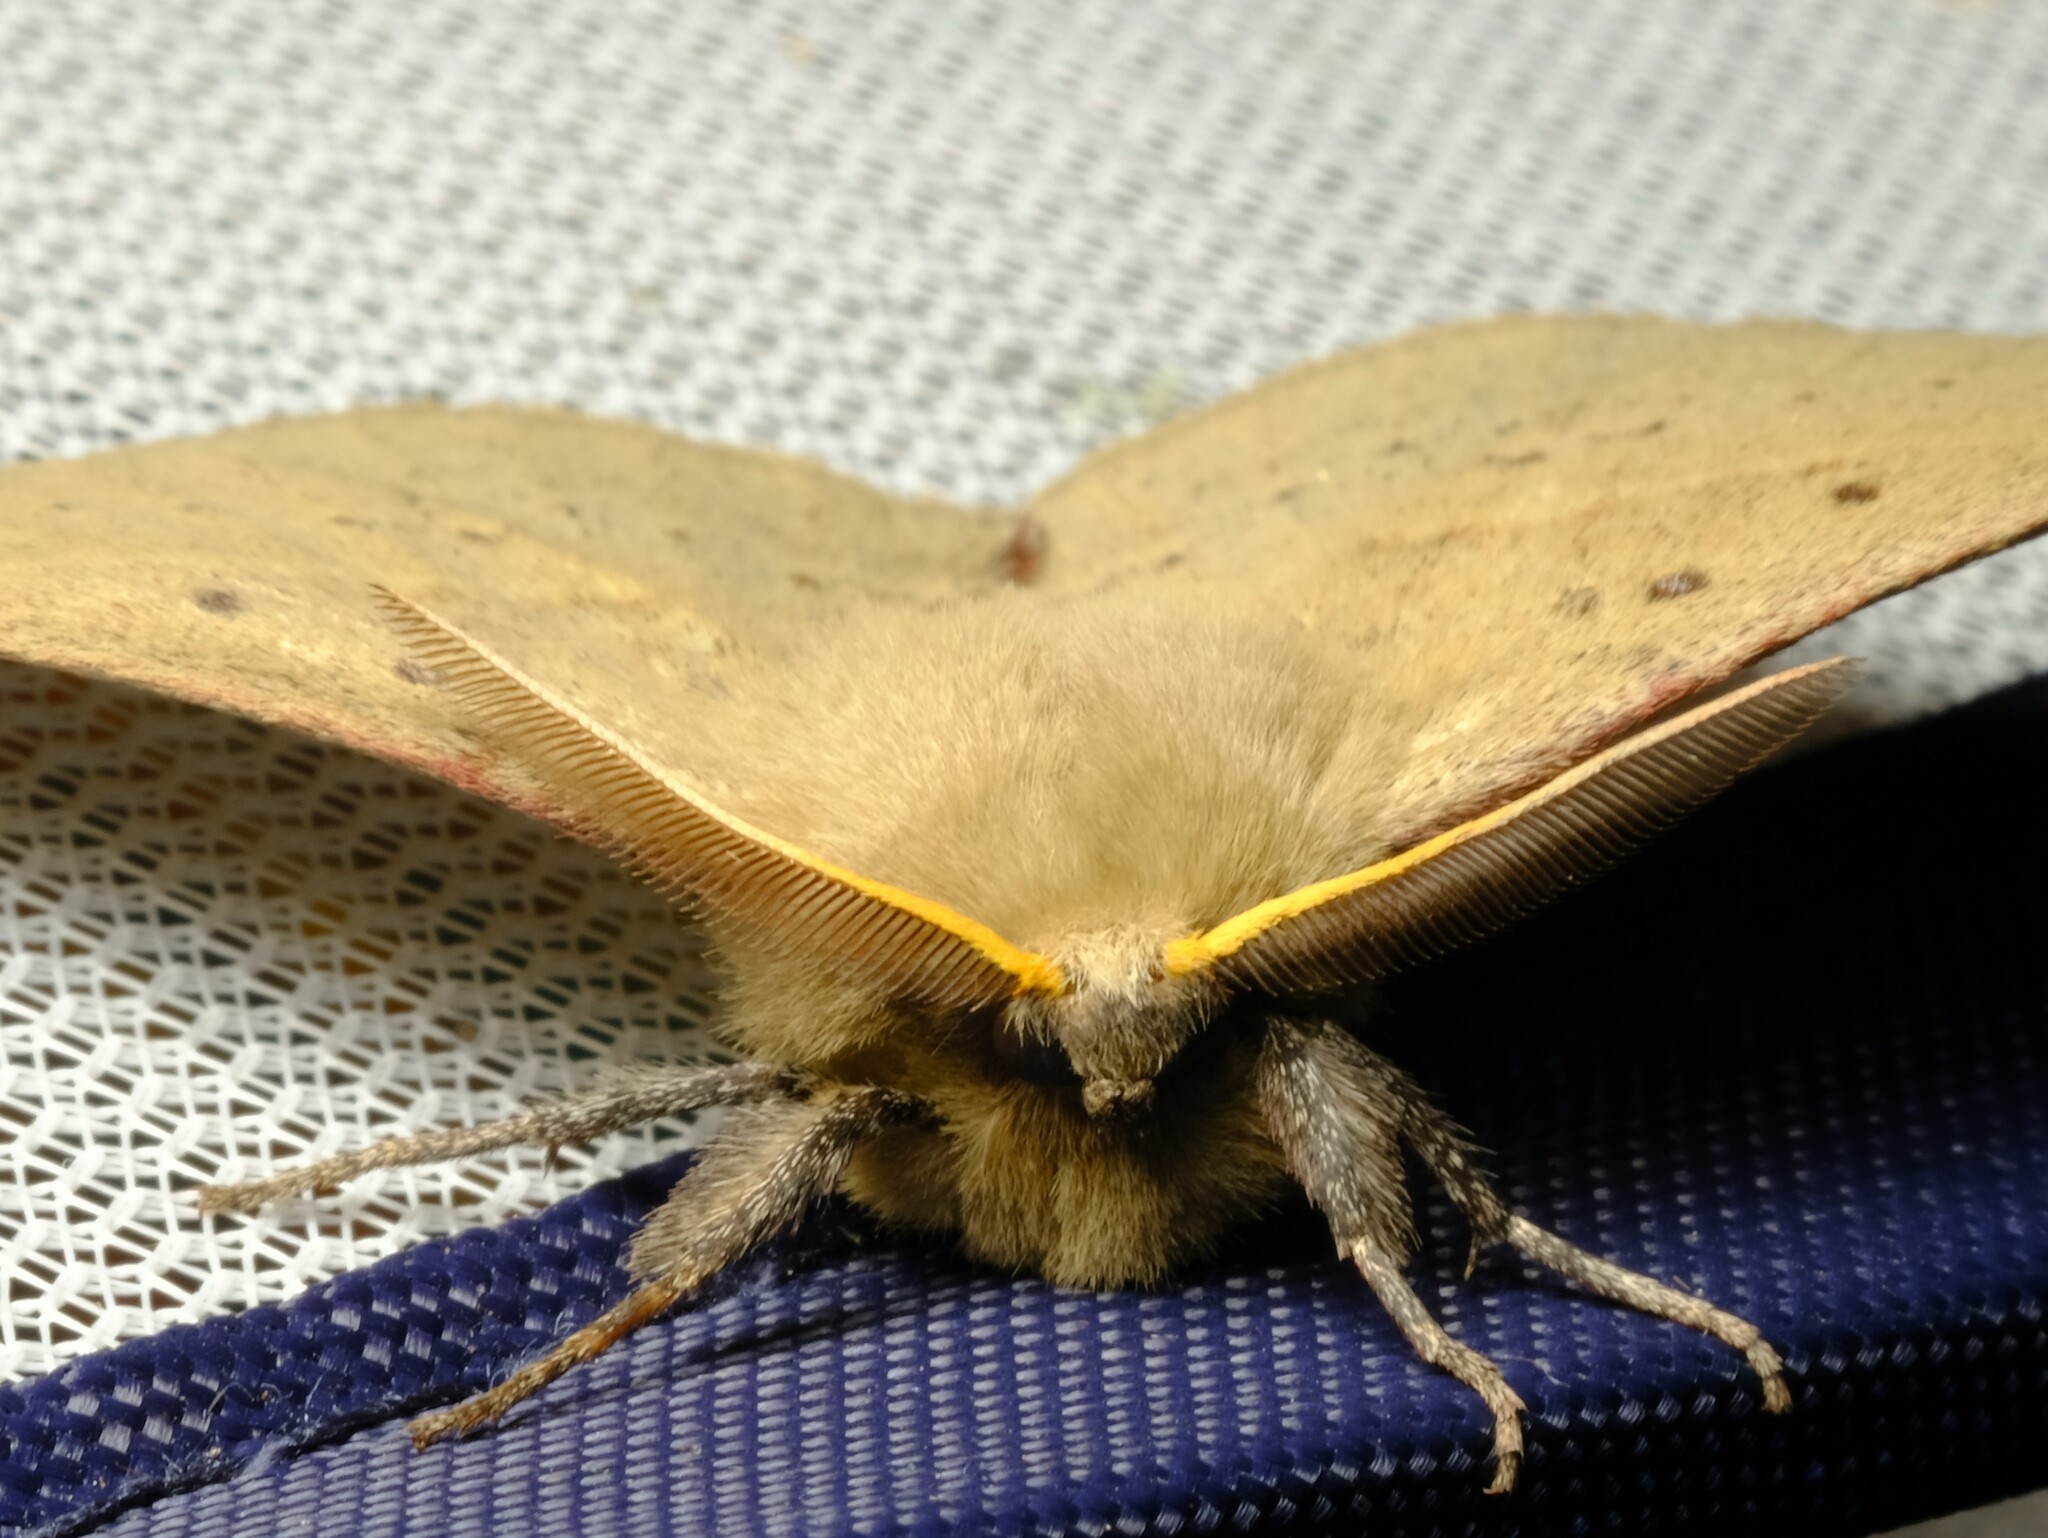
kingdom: Animalia
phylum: Arthropoda
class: Insecta
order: Lepidoptera
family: Anthelidae
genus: Anthela
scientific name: Anthela acuta
